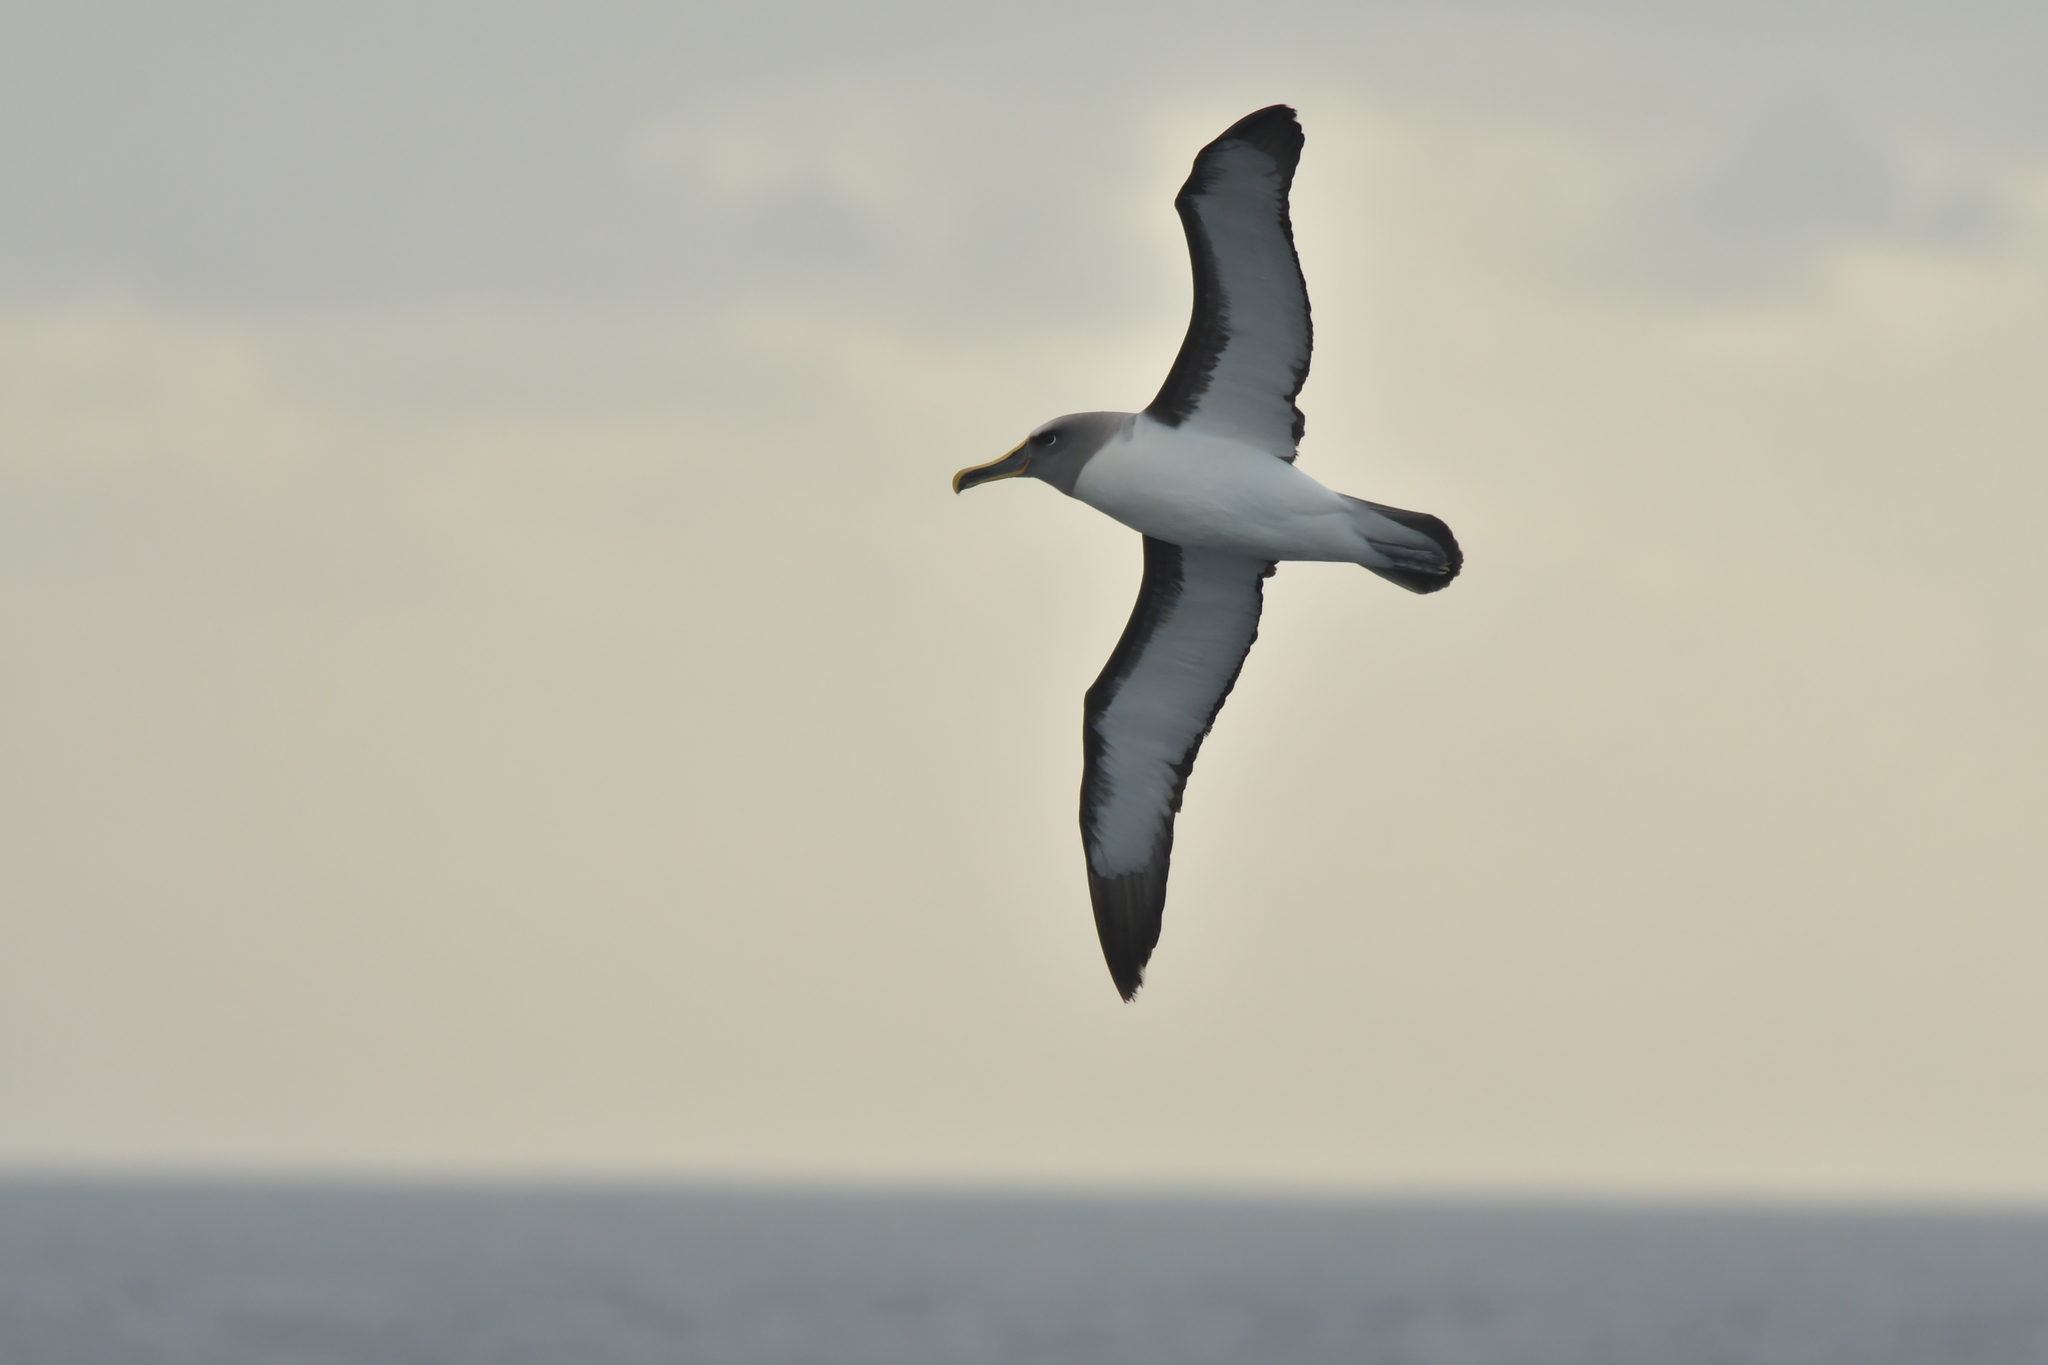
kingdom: Animalia
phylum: Chordata
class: Aves
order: Procellariiformes
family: Diomedeidae
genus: Thalassarche
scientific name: Thalassarche bulleri
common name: Buller's albatross
